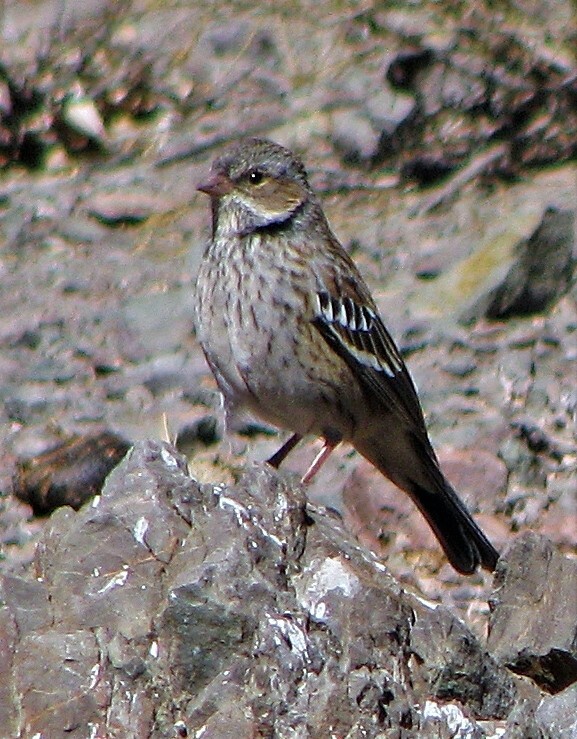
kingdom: Animalia
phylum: Chordata
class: Aves
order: Passeriformes
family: Thraupidae
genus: Rhopospina
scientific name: Rhopospina fruticeti
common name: Mourning sierra finch
